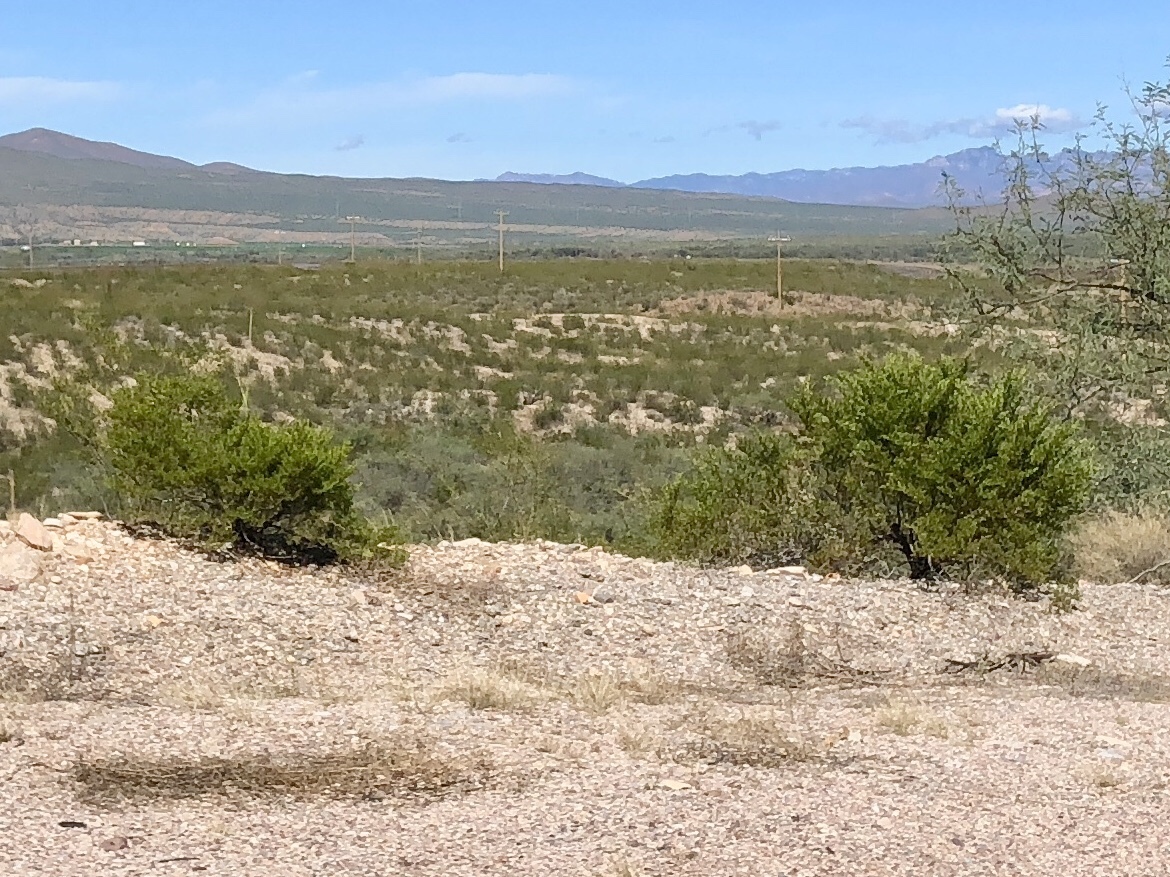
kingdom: Plantae
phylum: Tracheophyta
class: Magnoliopsida
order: Zygophyllales
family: Zygophyllaceae
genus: Larrea
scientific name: Larrea tridentata
